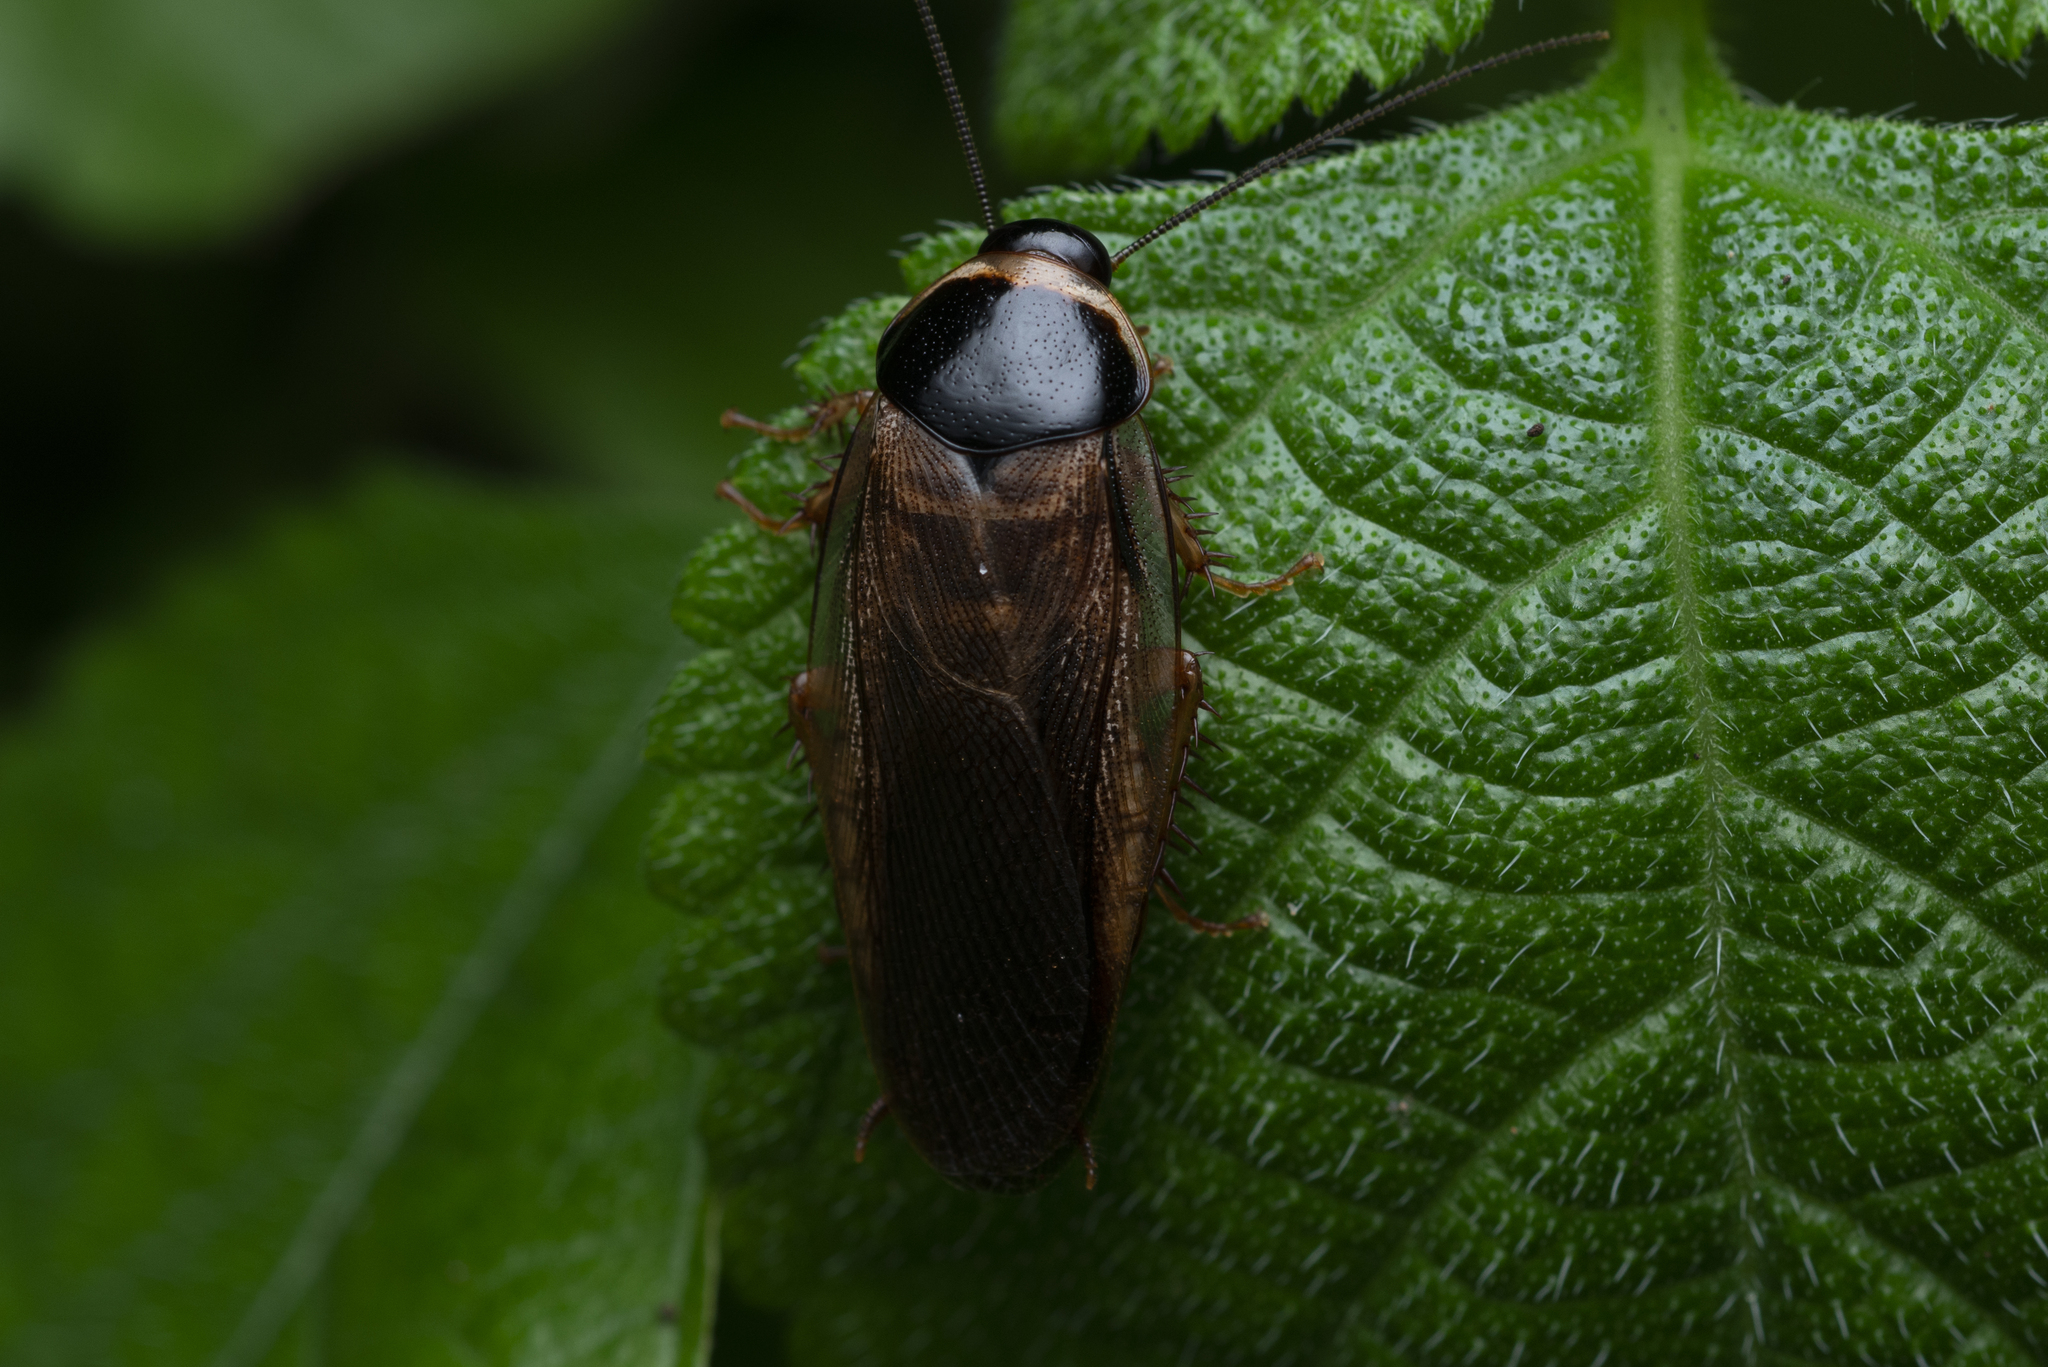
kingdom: Animalia
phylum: Arthropoda
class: Insecta
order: Blattodea
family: Blaberidae
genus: Pycnoscelus
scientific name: Pycnoscelus indicus
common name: Burrowing cockroach
